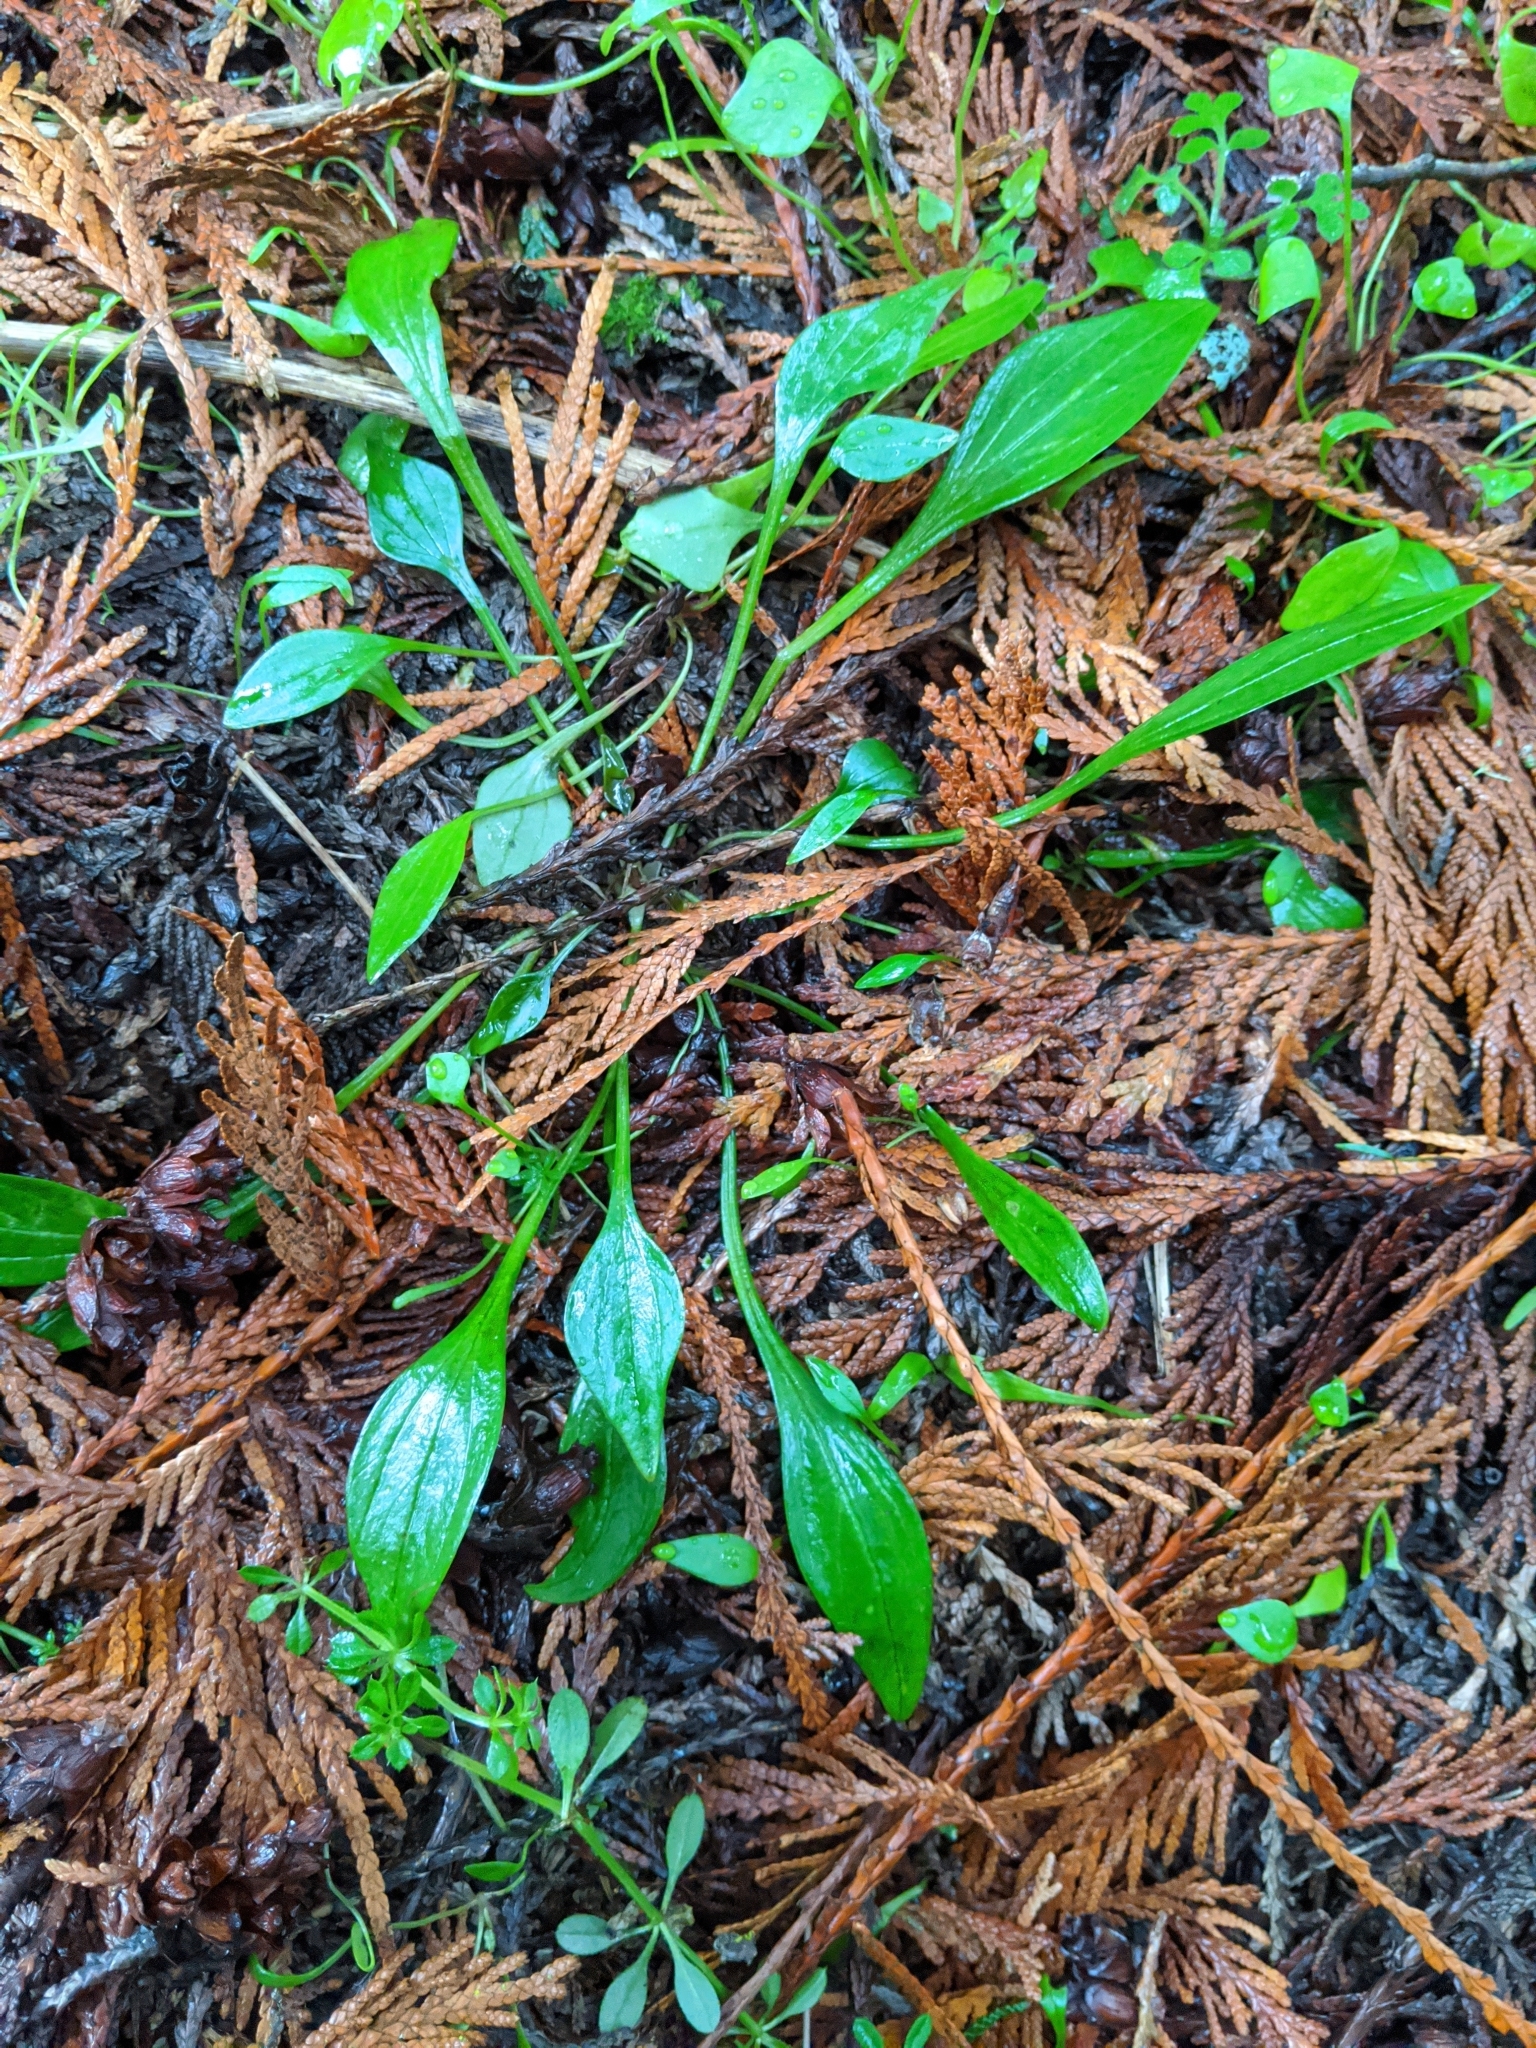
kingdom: Plantae
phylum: Tracheophyta
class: Magnoliopsida
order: Caryophyllales
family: Montiaceae
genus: Claytonia
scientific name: Claytonia sibirica
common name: Pink purslane
